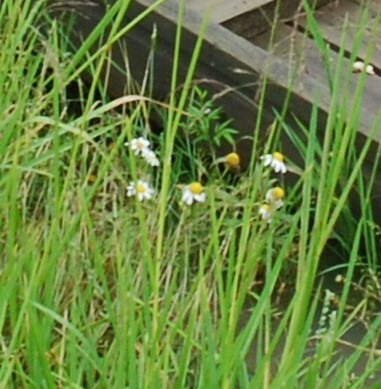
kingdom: Plantae
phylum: Tracheophyta
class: Magnoliopsida
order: Asterales
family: Asteraceae
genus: Tripleurospermum
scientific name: Tripleurospermum inodorum
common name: Scentless mayweed
